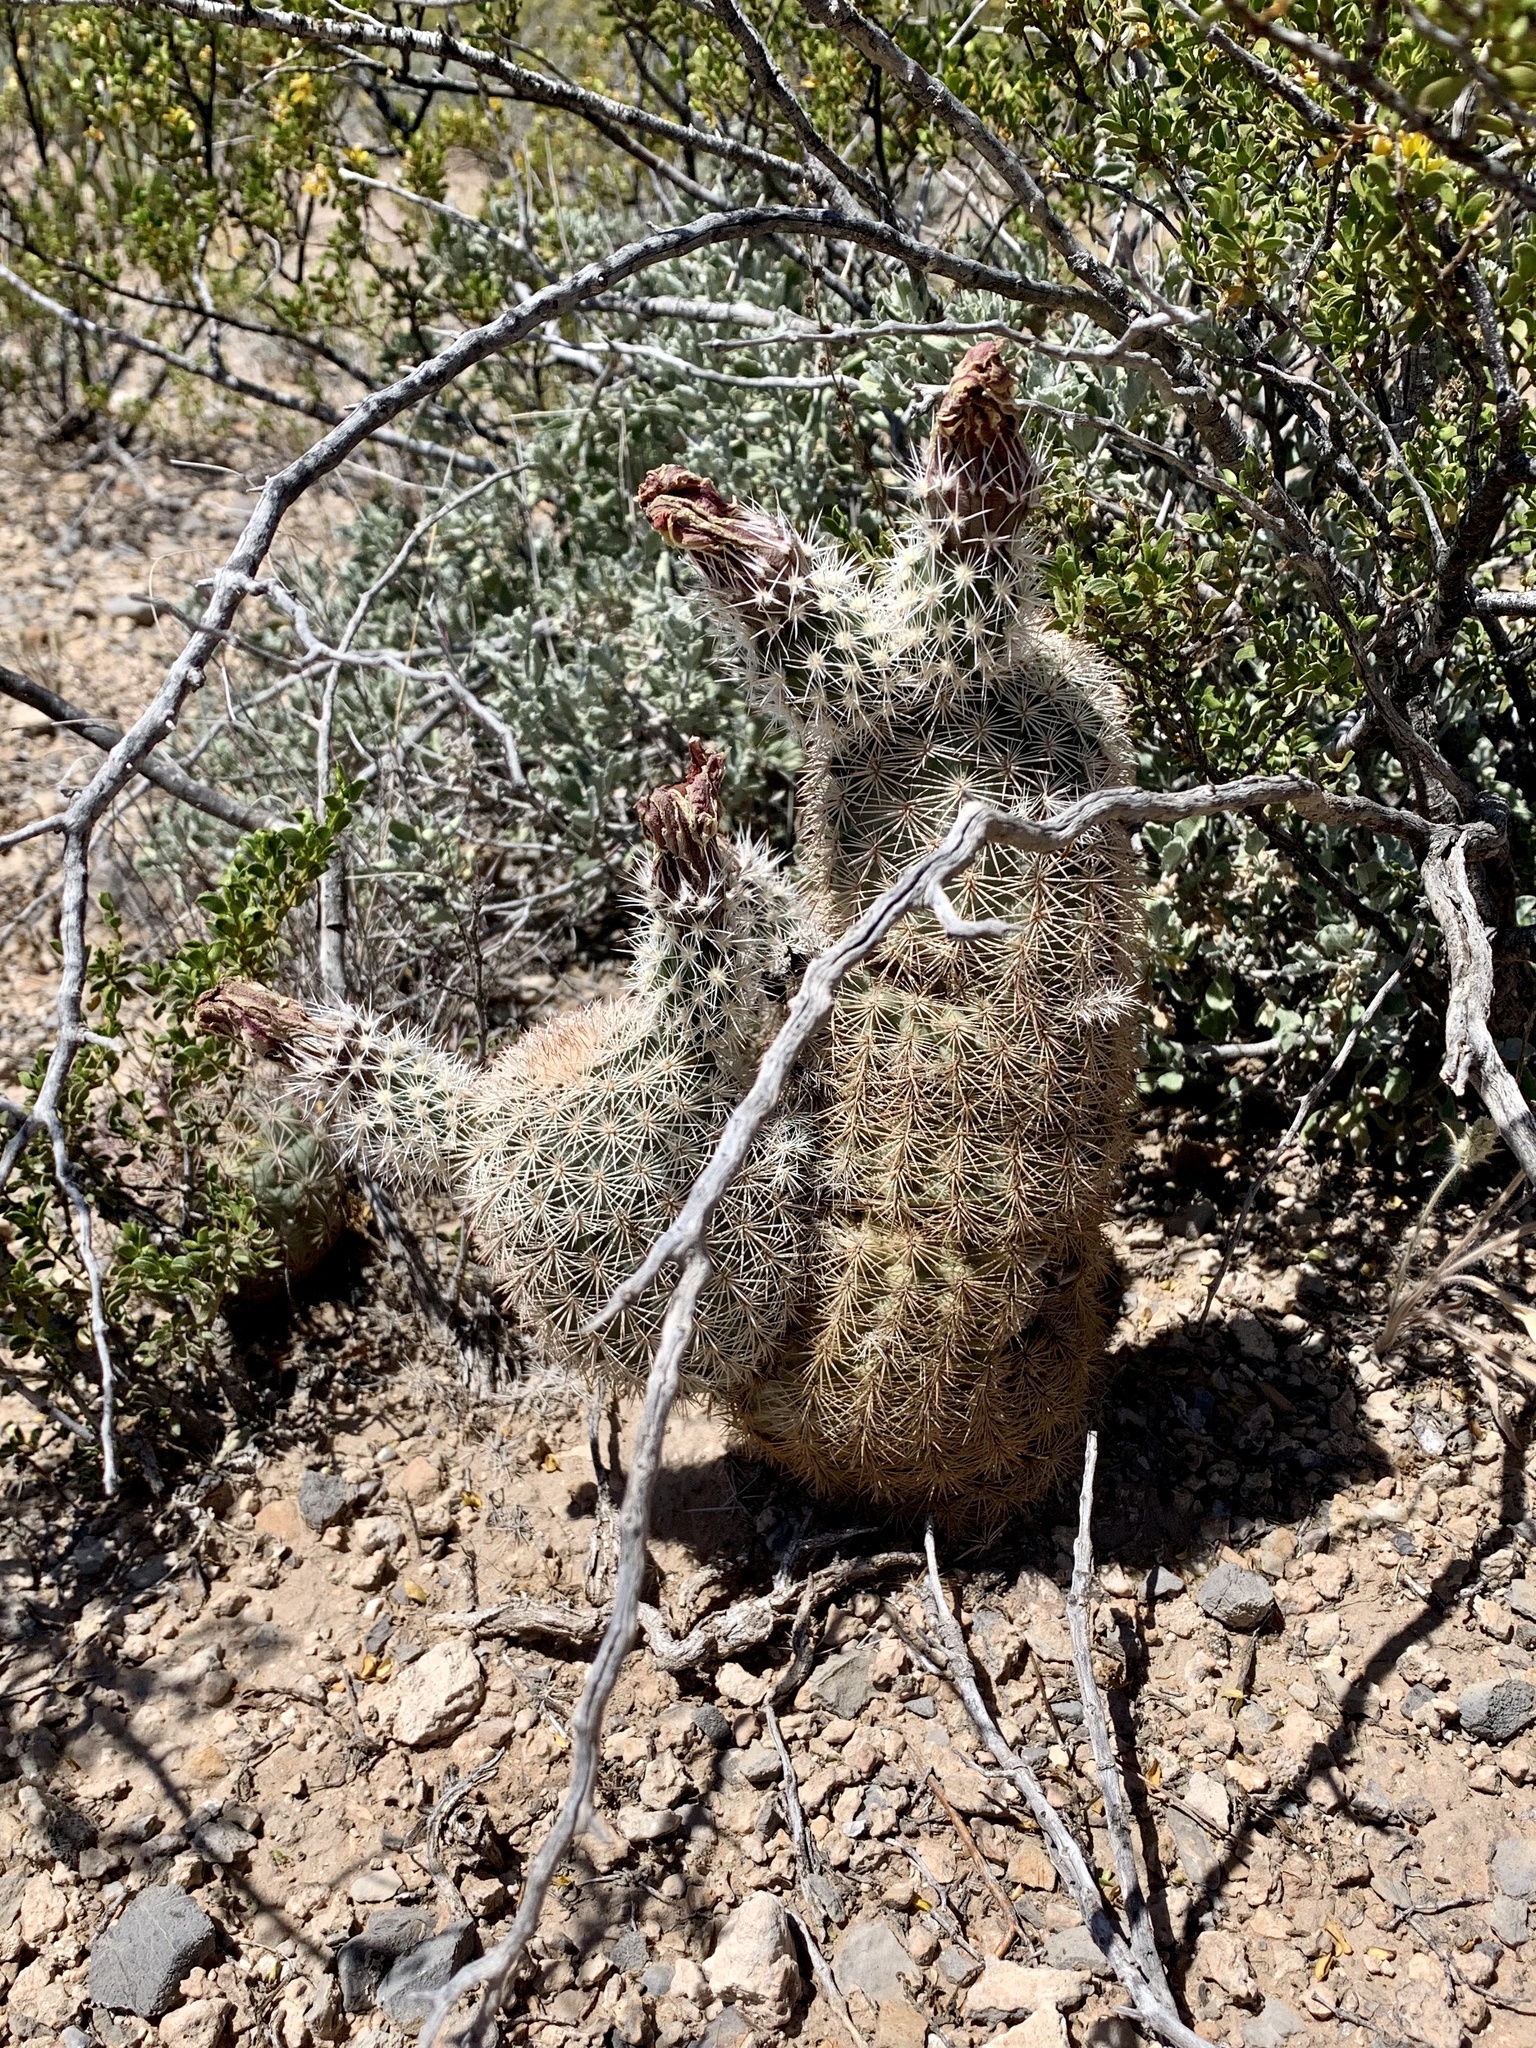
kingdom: Plantae
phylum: Tracheophyta
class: Magnoliopsida
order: Caryophyllales
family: Cactaceae
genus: Echinocereus
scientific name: Echinocereus dasyacanthus
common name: Spiny hedgehog cactus
